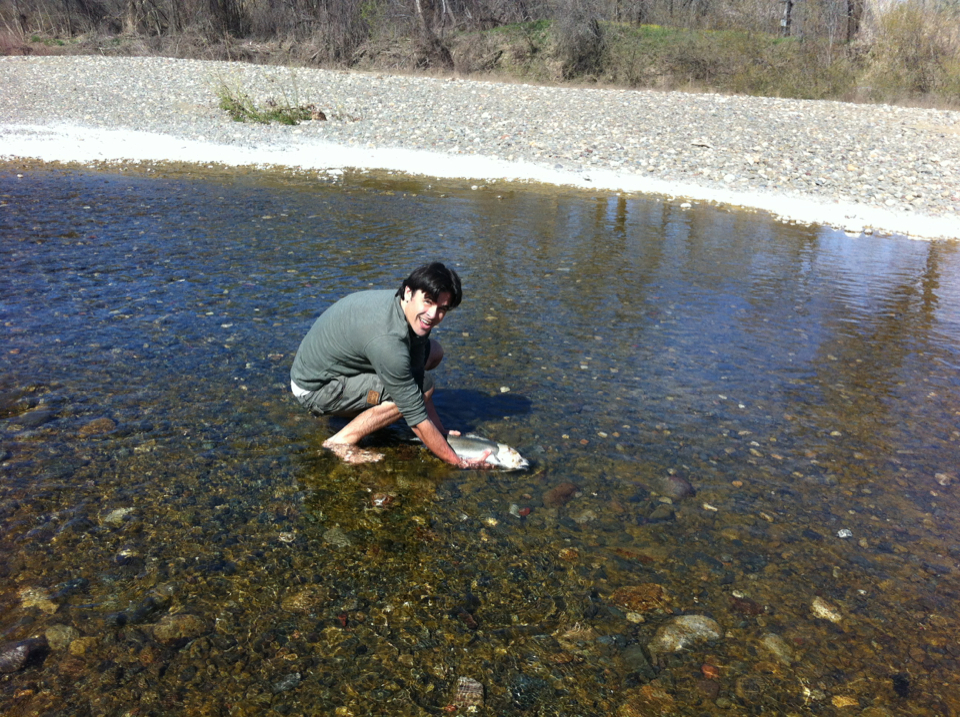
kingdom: Animalia
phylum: Chordata
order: Salmoniformes
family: Salmonidae
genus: Oncorhynchus
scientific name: Oncorhynchus mykiss
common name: Rainbow trout
